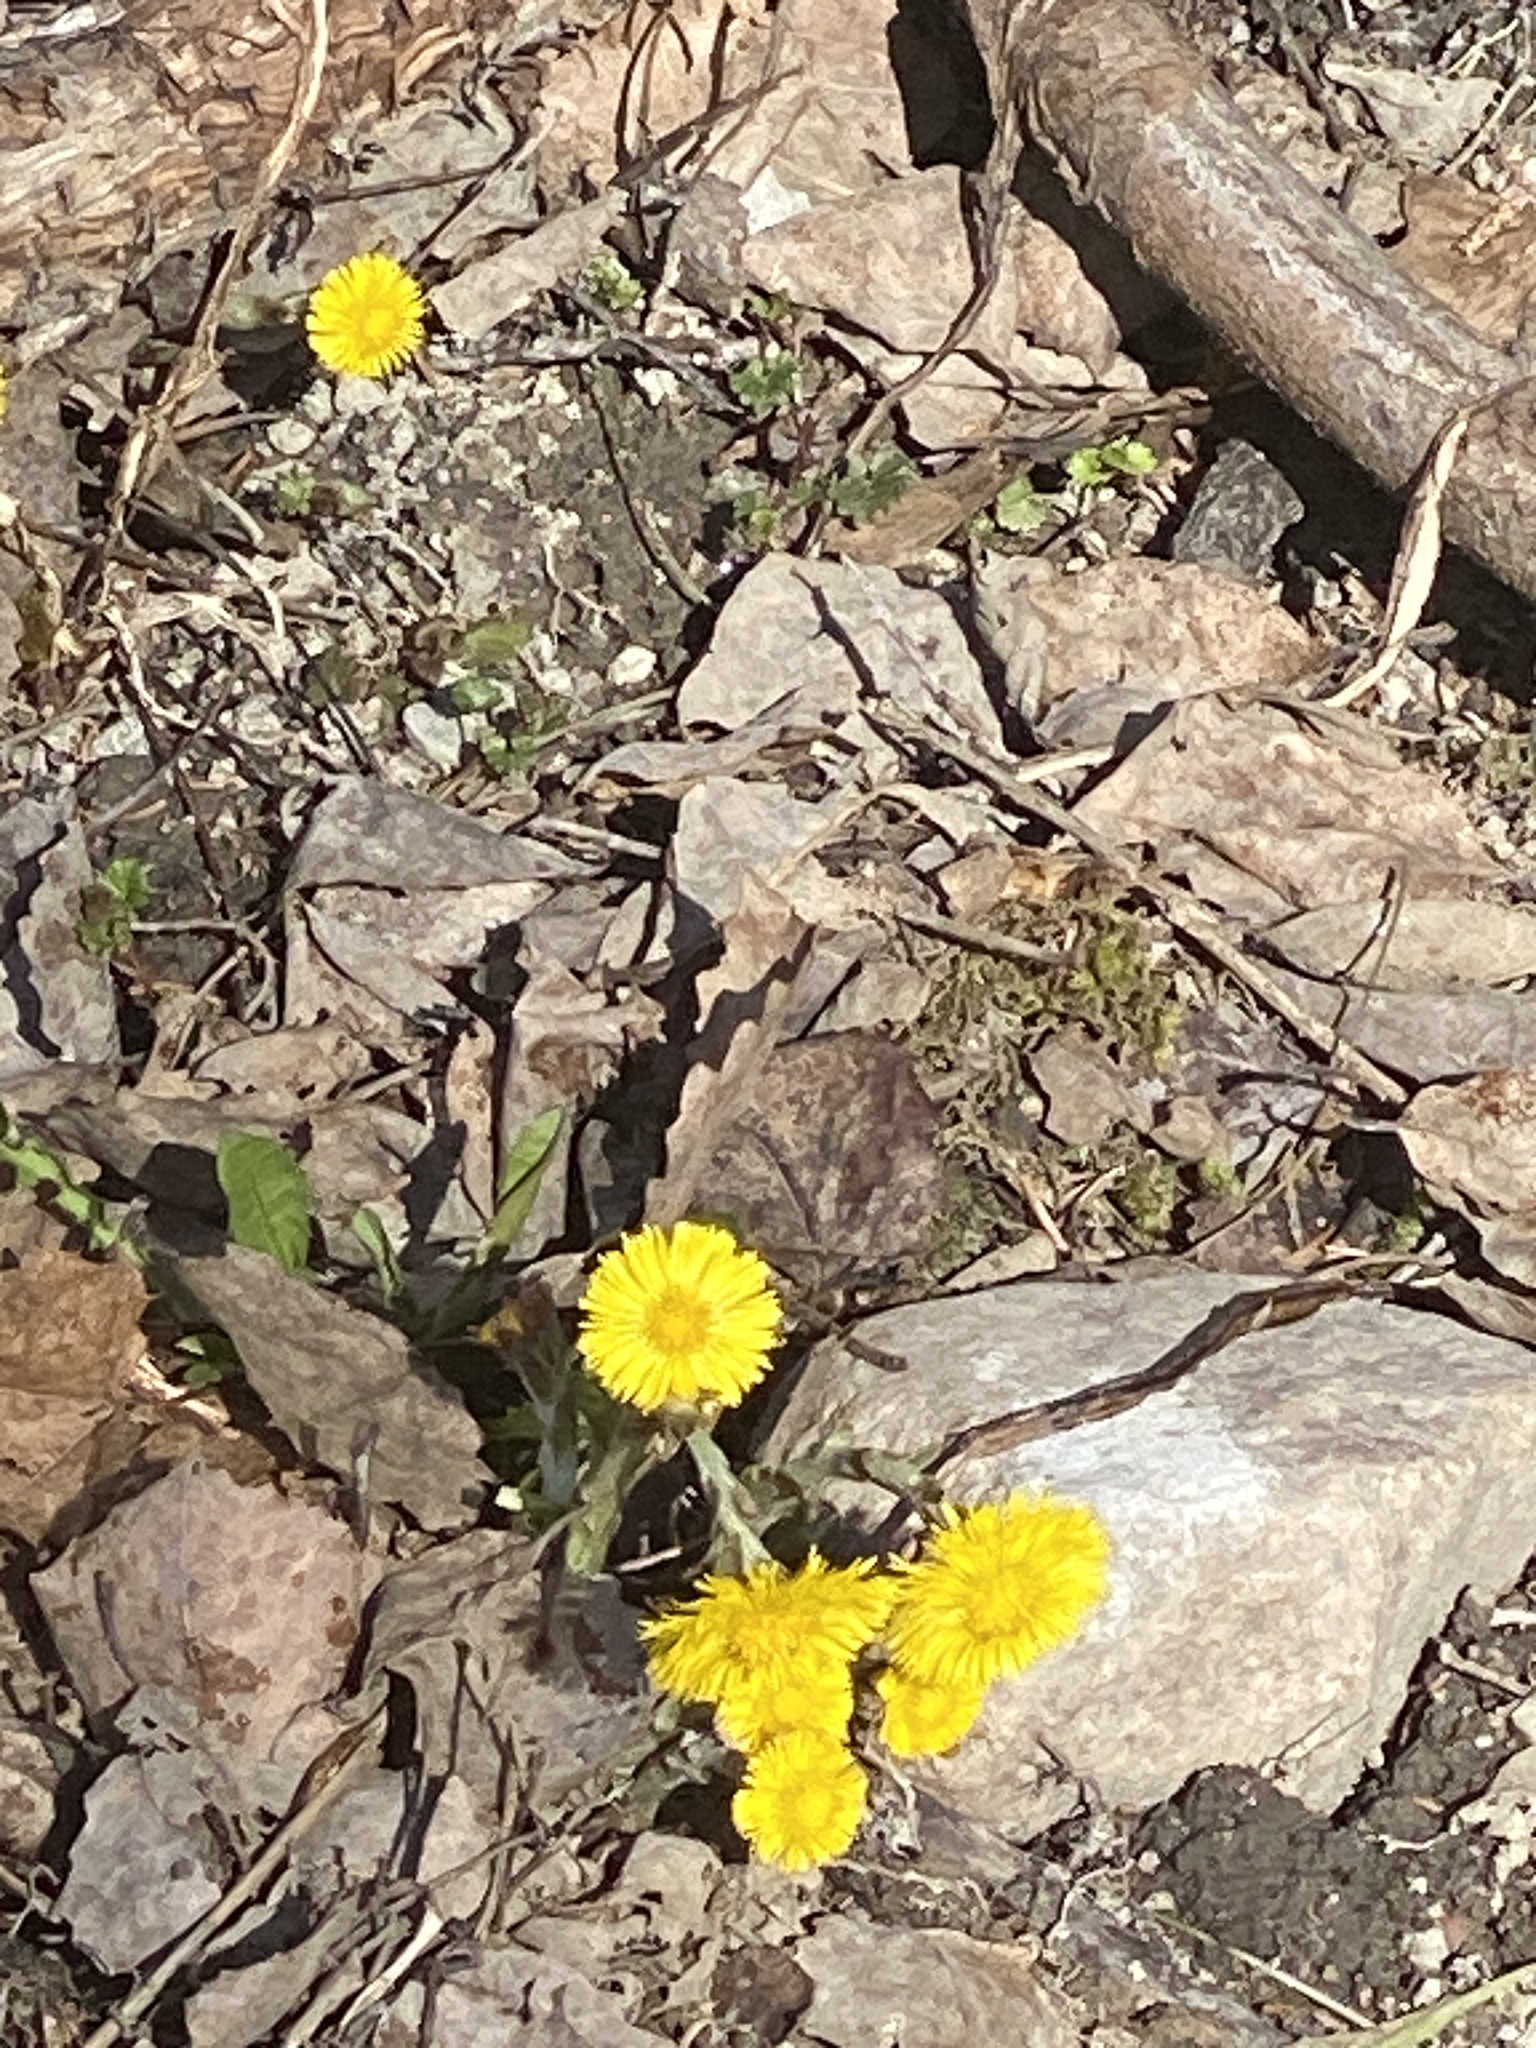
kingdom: Plantae
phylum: Tracheophyta
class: Magnoliopsida
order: Asterales
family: Asteraceae
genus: Tussilago
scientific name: Tussilago farfara
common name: Coltsfoot
